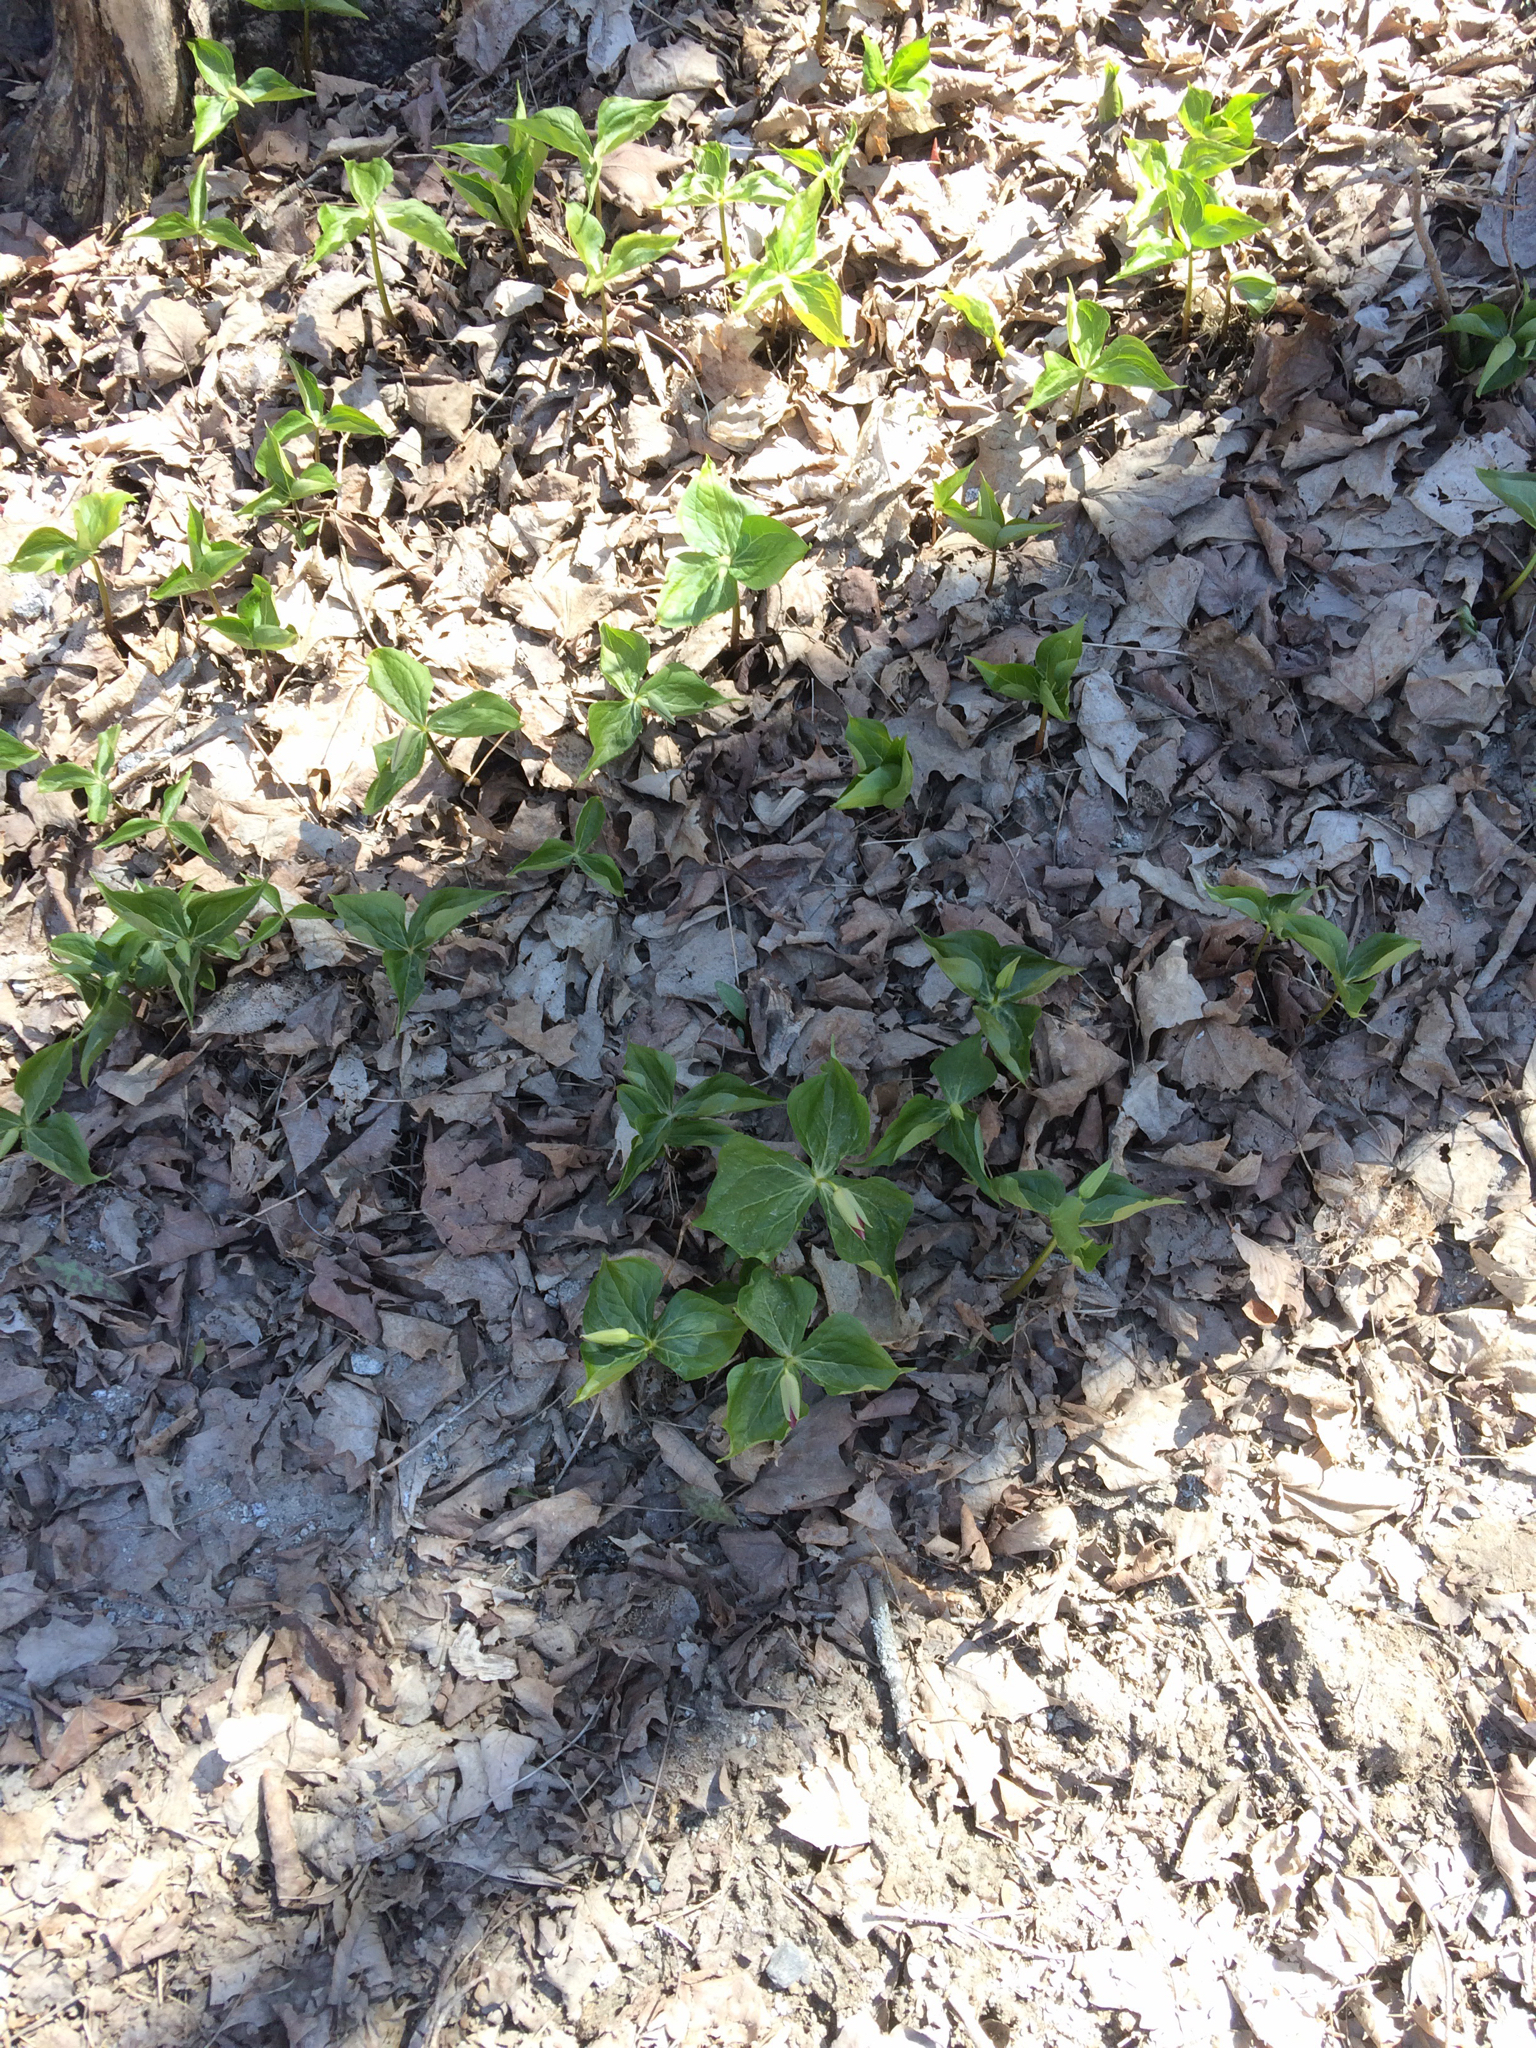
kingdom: Plantae
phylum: Tracheophyta
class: Liliopsida
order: Liliales
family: Melanthiaceae
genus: Trillium
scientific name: Trillium erectum
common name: Purple trillium
